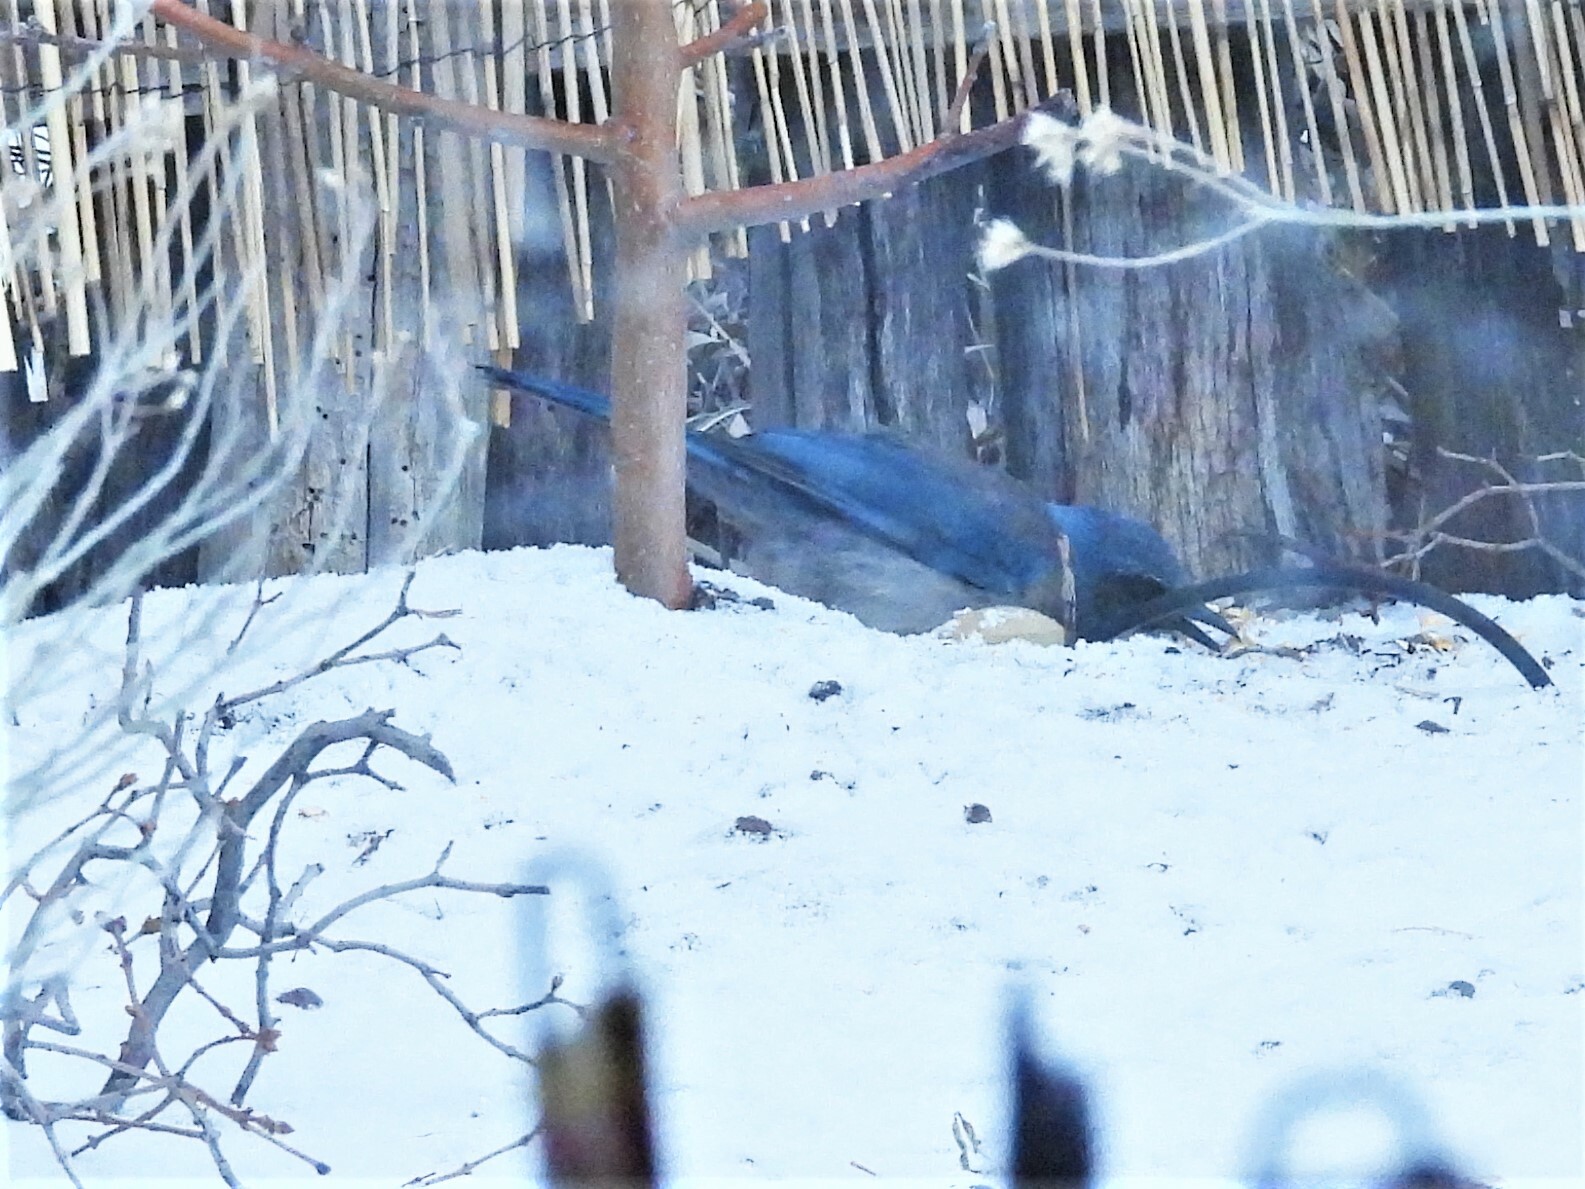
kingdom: Animalia
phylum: Chordata
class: Aves
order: Passeriformes
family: Corvidae
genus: Aphelocoma
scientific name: Aphelocoma woodhouseii
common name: Woodhouse's scrub-jay
